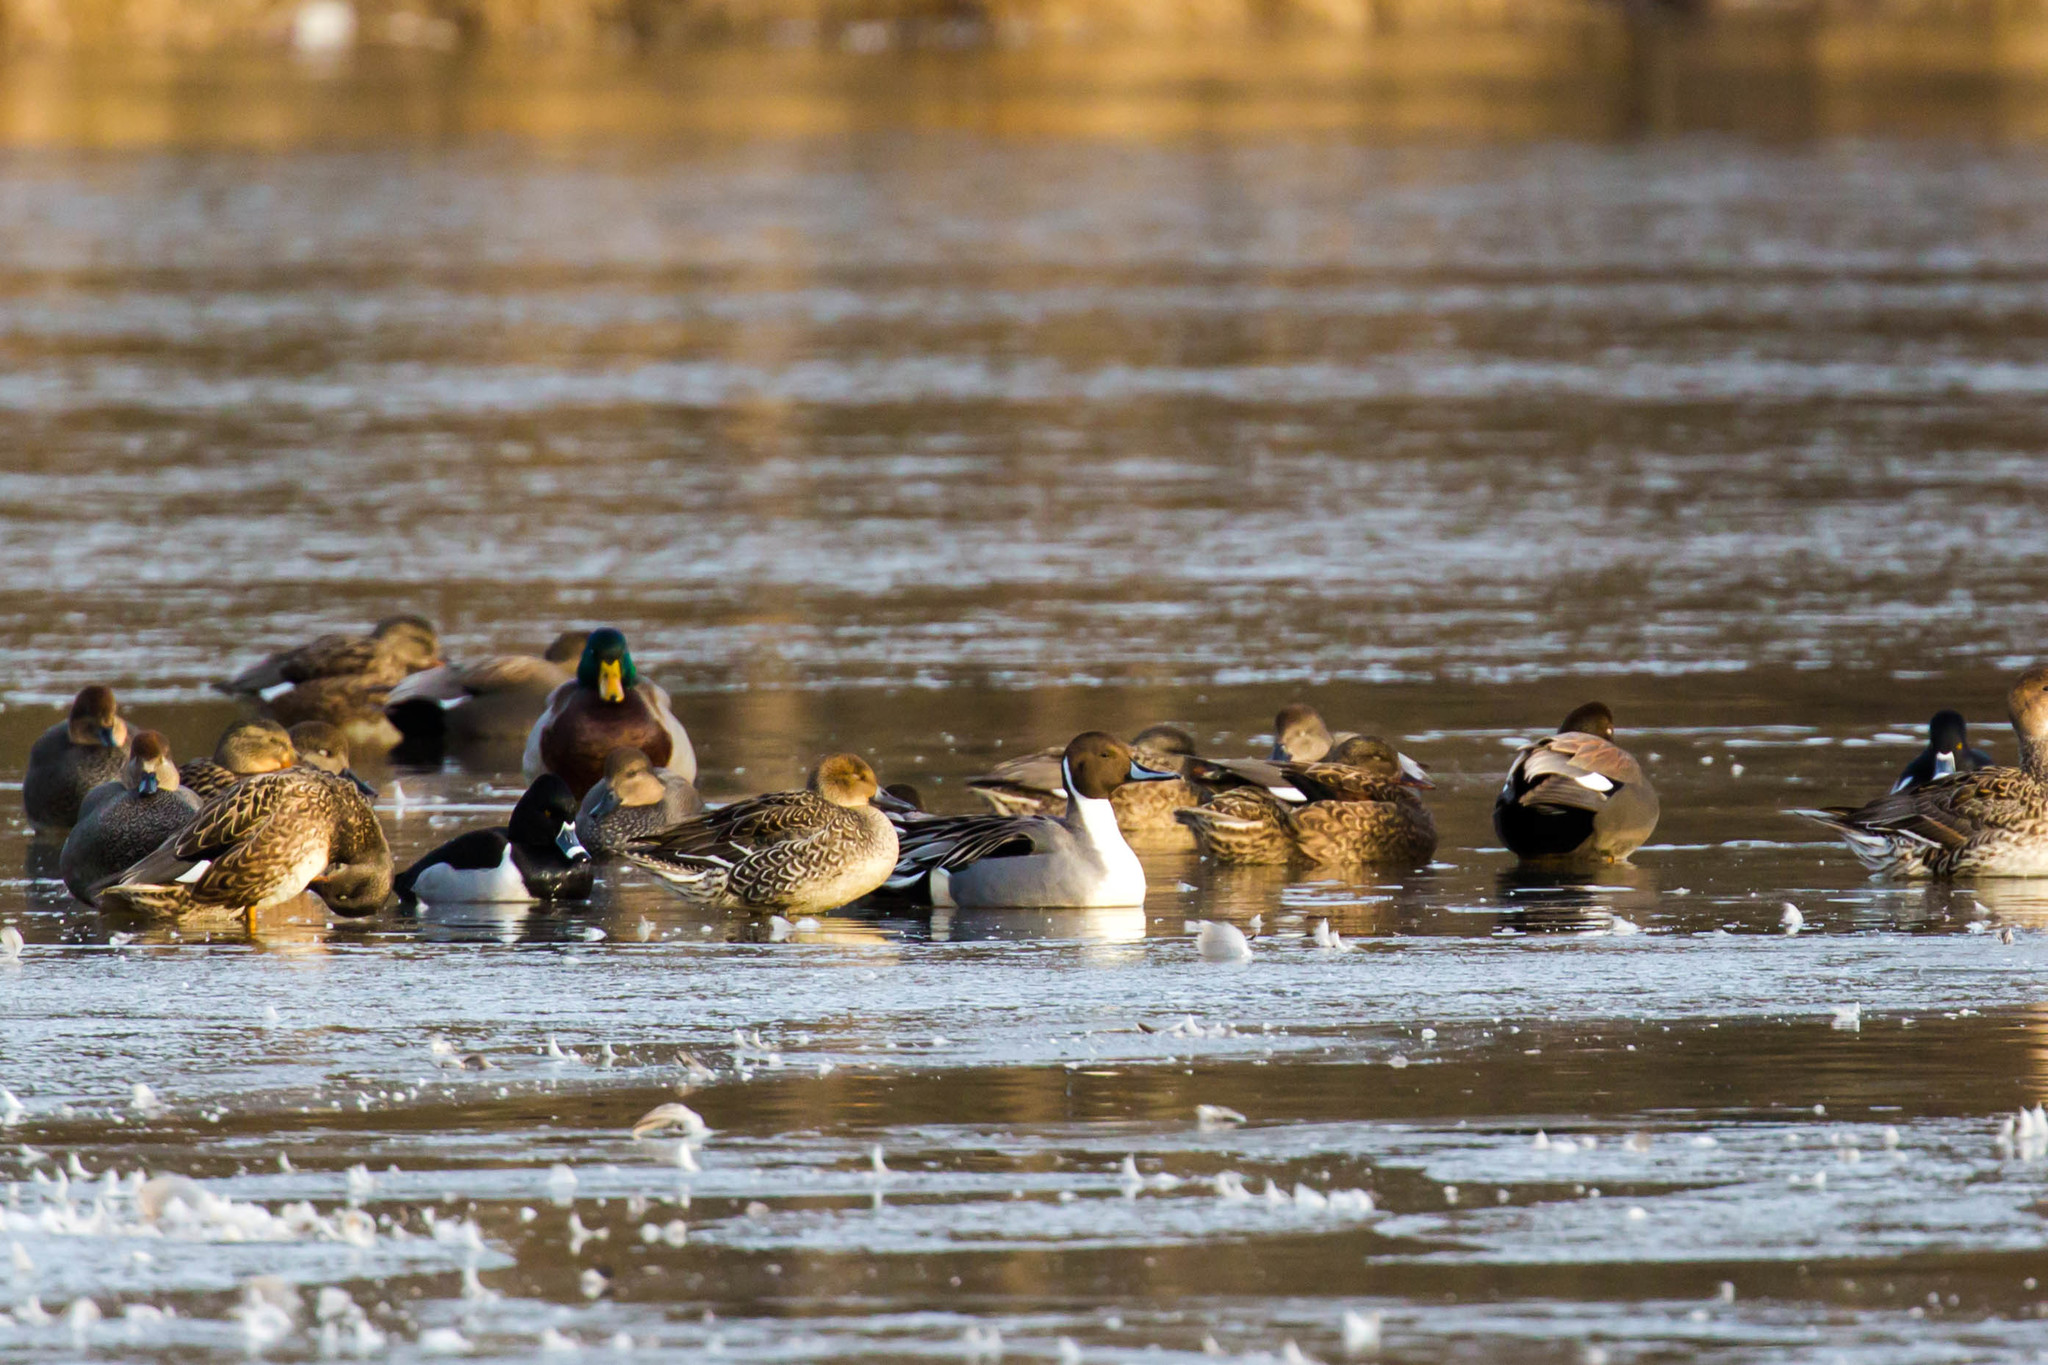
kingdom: Animalia
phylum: Chordata
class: Aves
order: Anseriformes
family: Anatidae
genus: Anas
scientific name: Anas acuta
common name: Northern pintail
